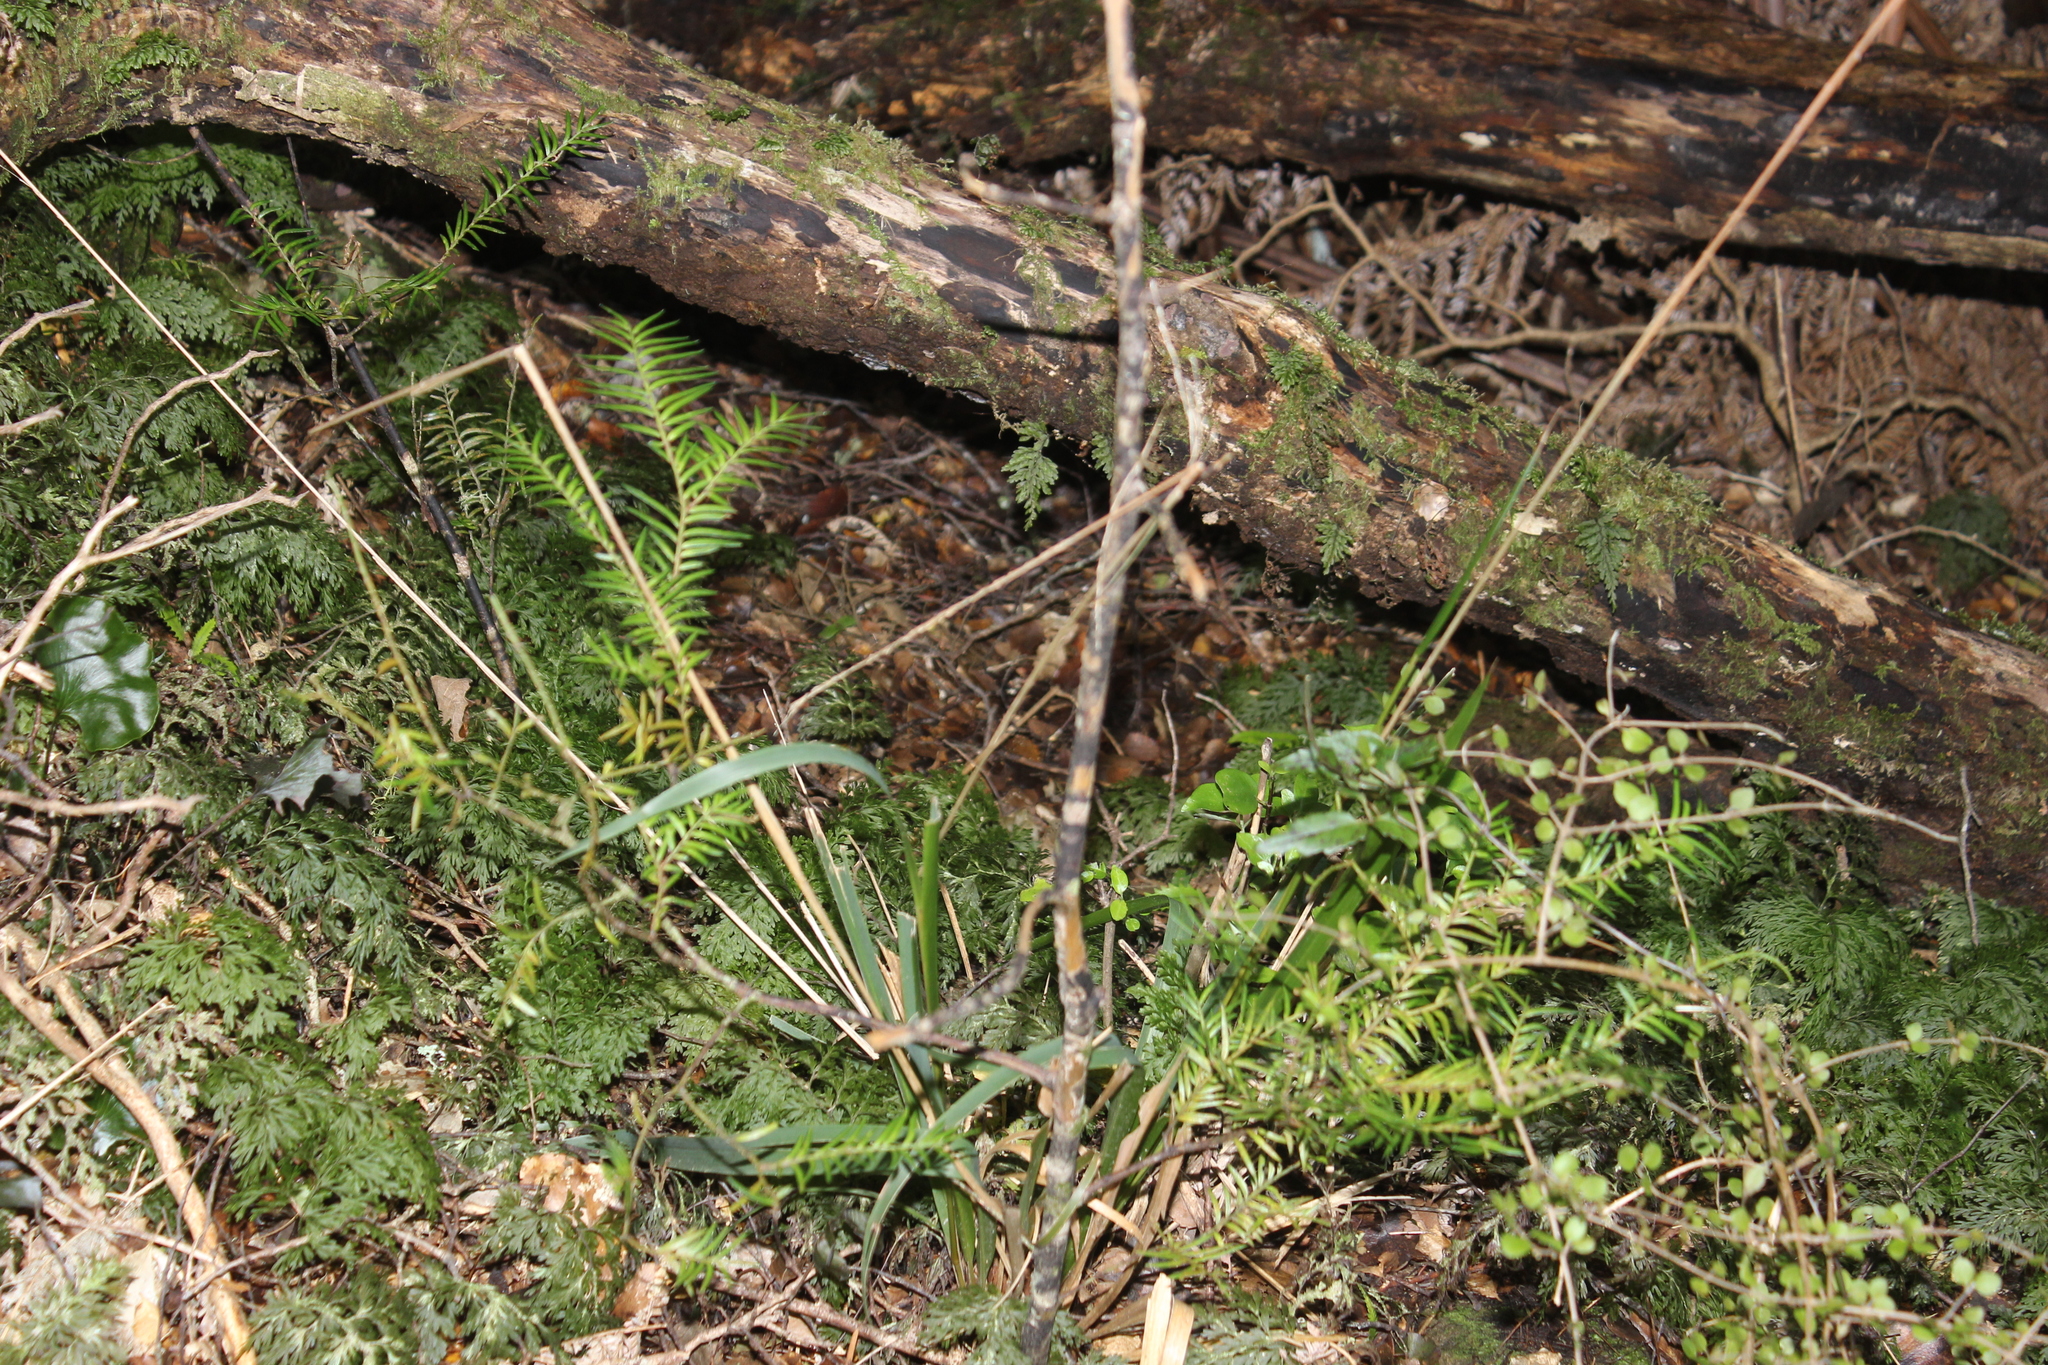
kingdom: Plantae
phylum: Tracheophyta
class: Pinopsida
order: Pinales
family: Podocarpaceae
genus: Prumnopitys
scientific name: Prumnopitys ferruginea
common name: Brown pine
